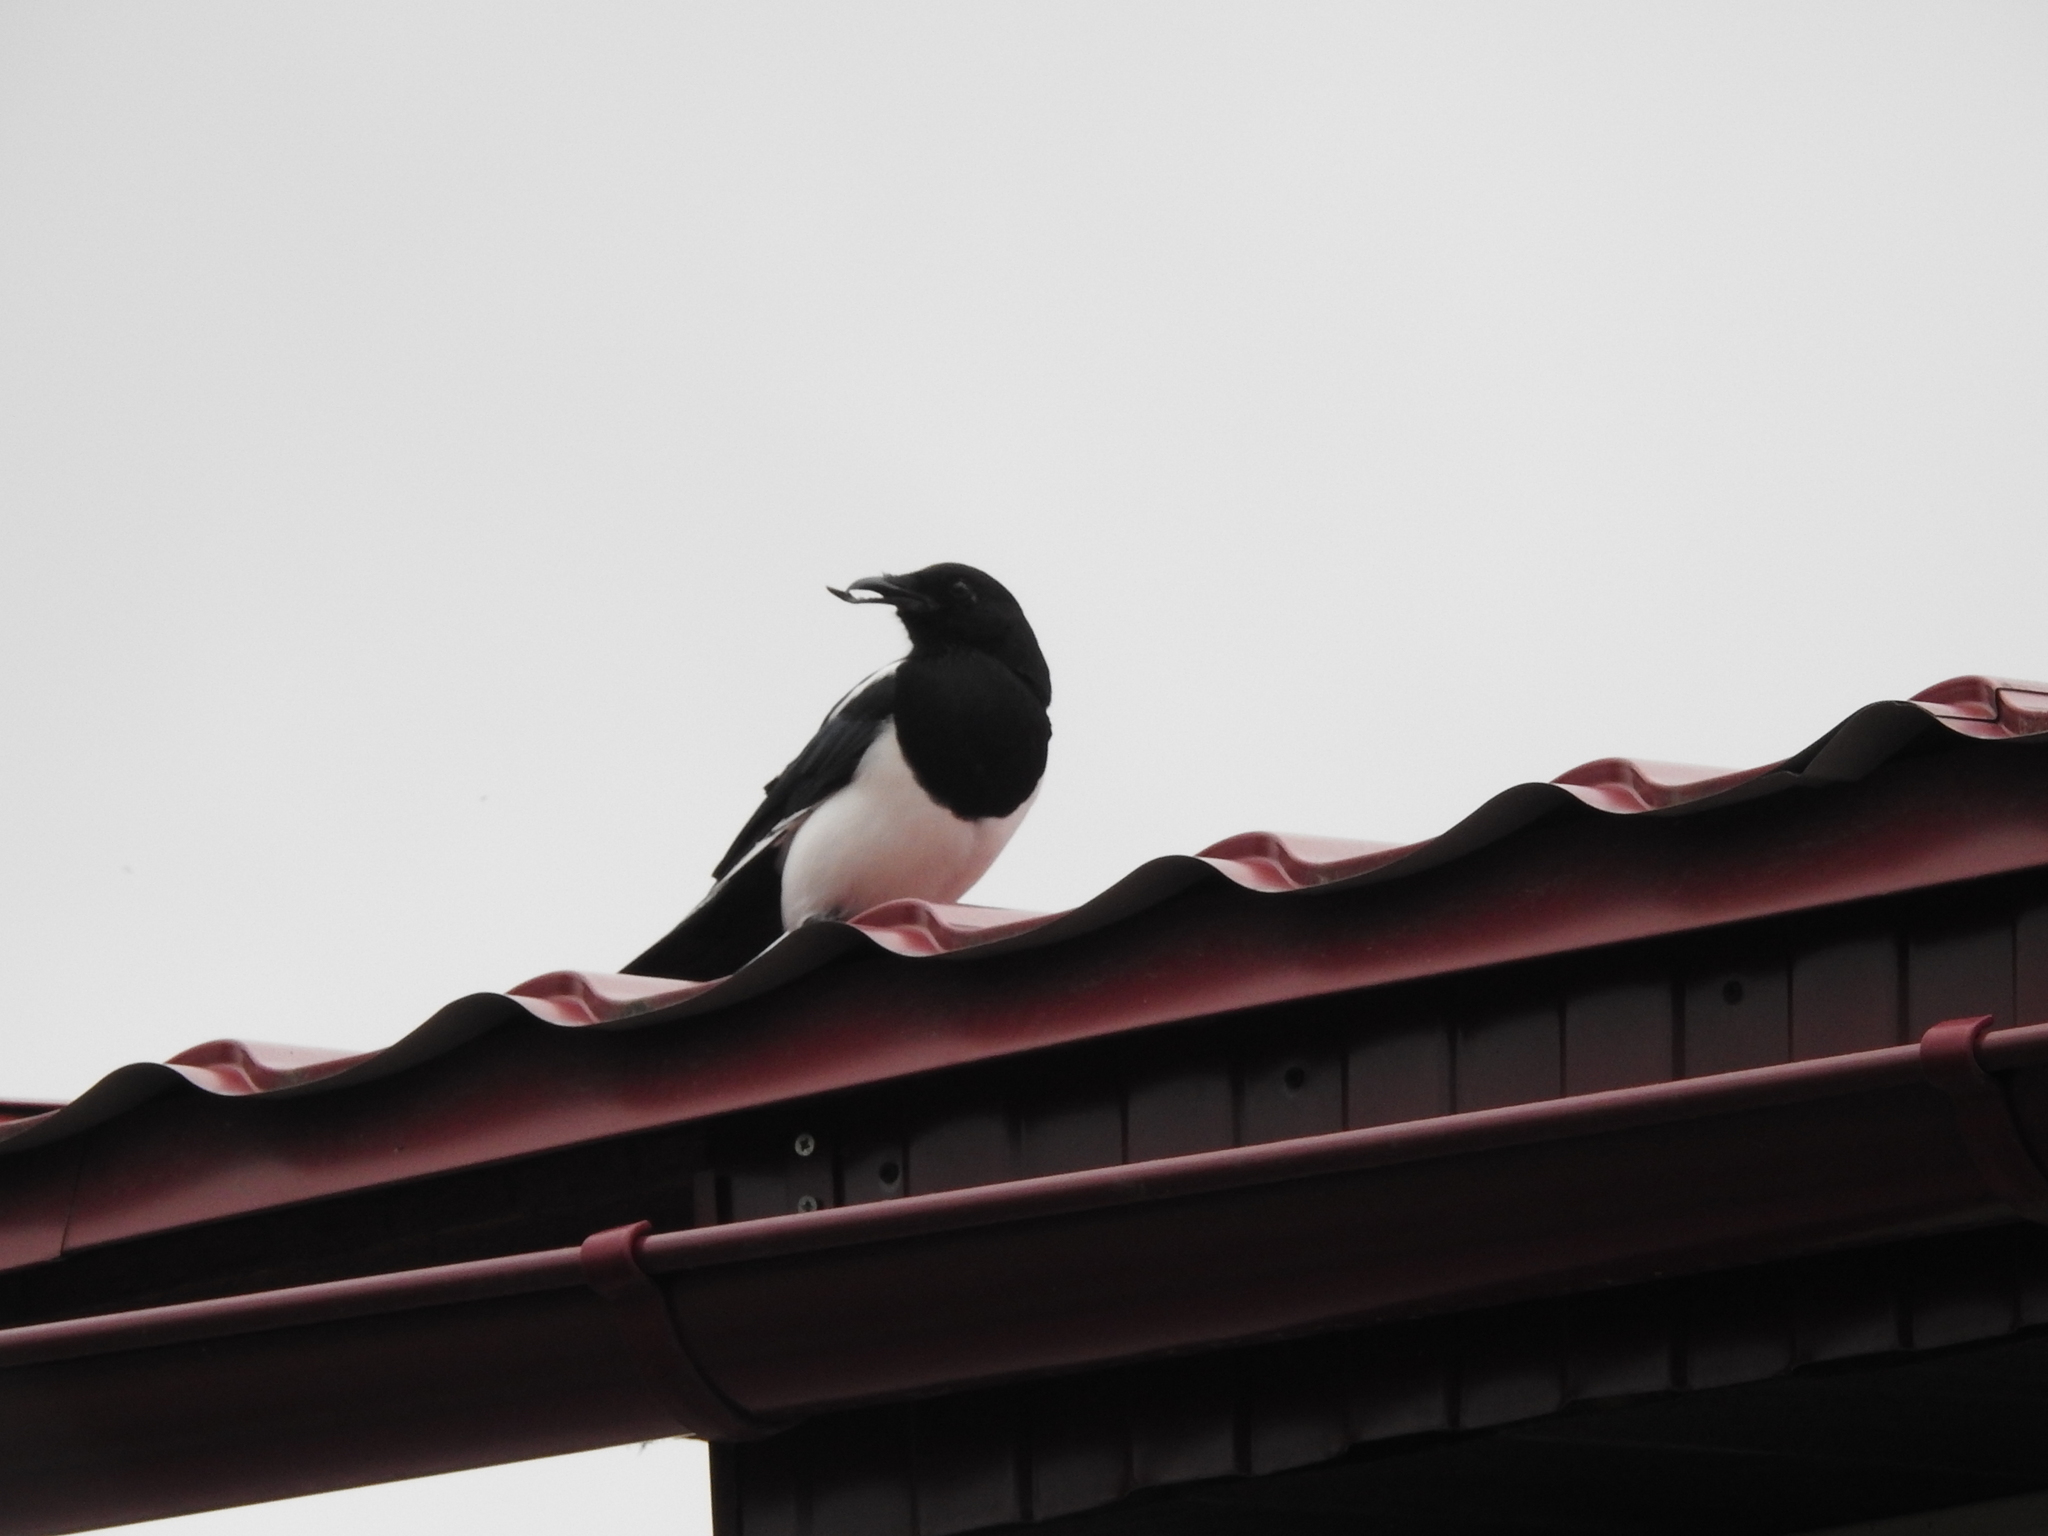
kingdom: Animalia
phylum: Chordata
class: Aves
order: Passeriformes
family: Corvidae
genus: Pica
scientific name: Pica pica
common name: Eurasian magpie
